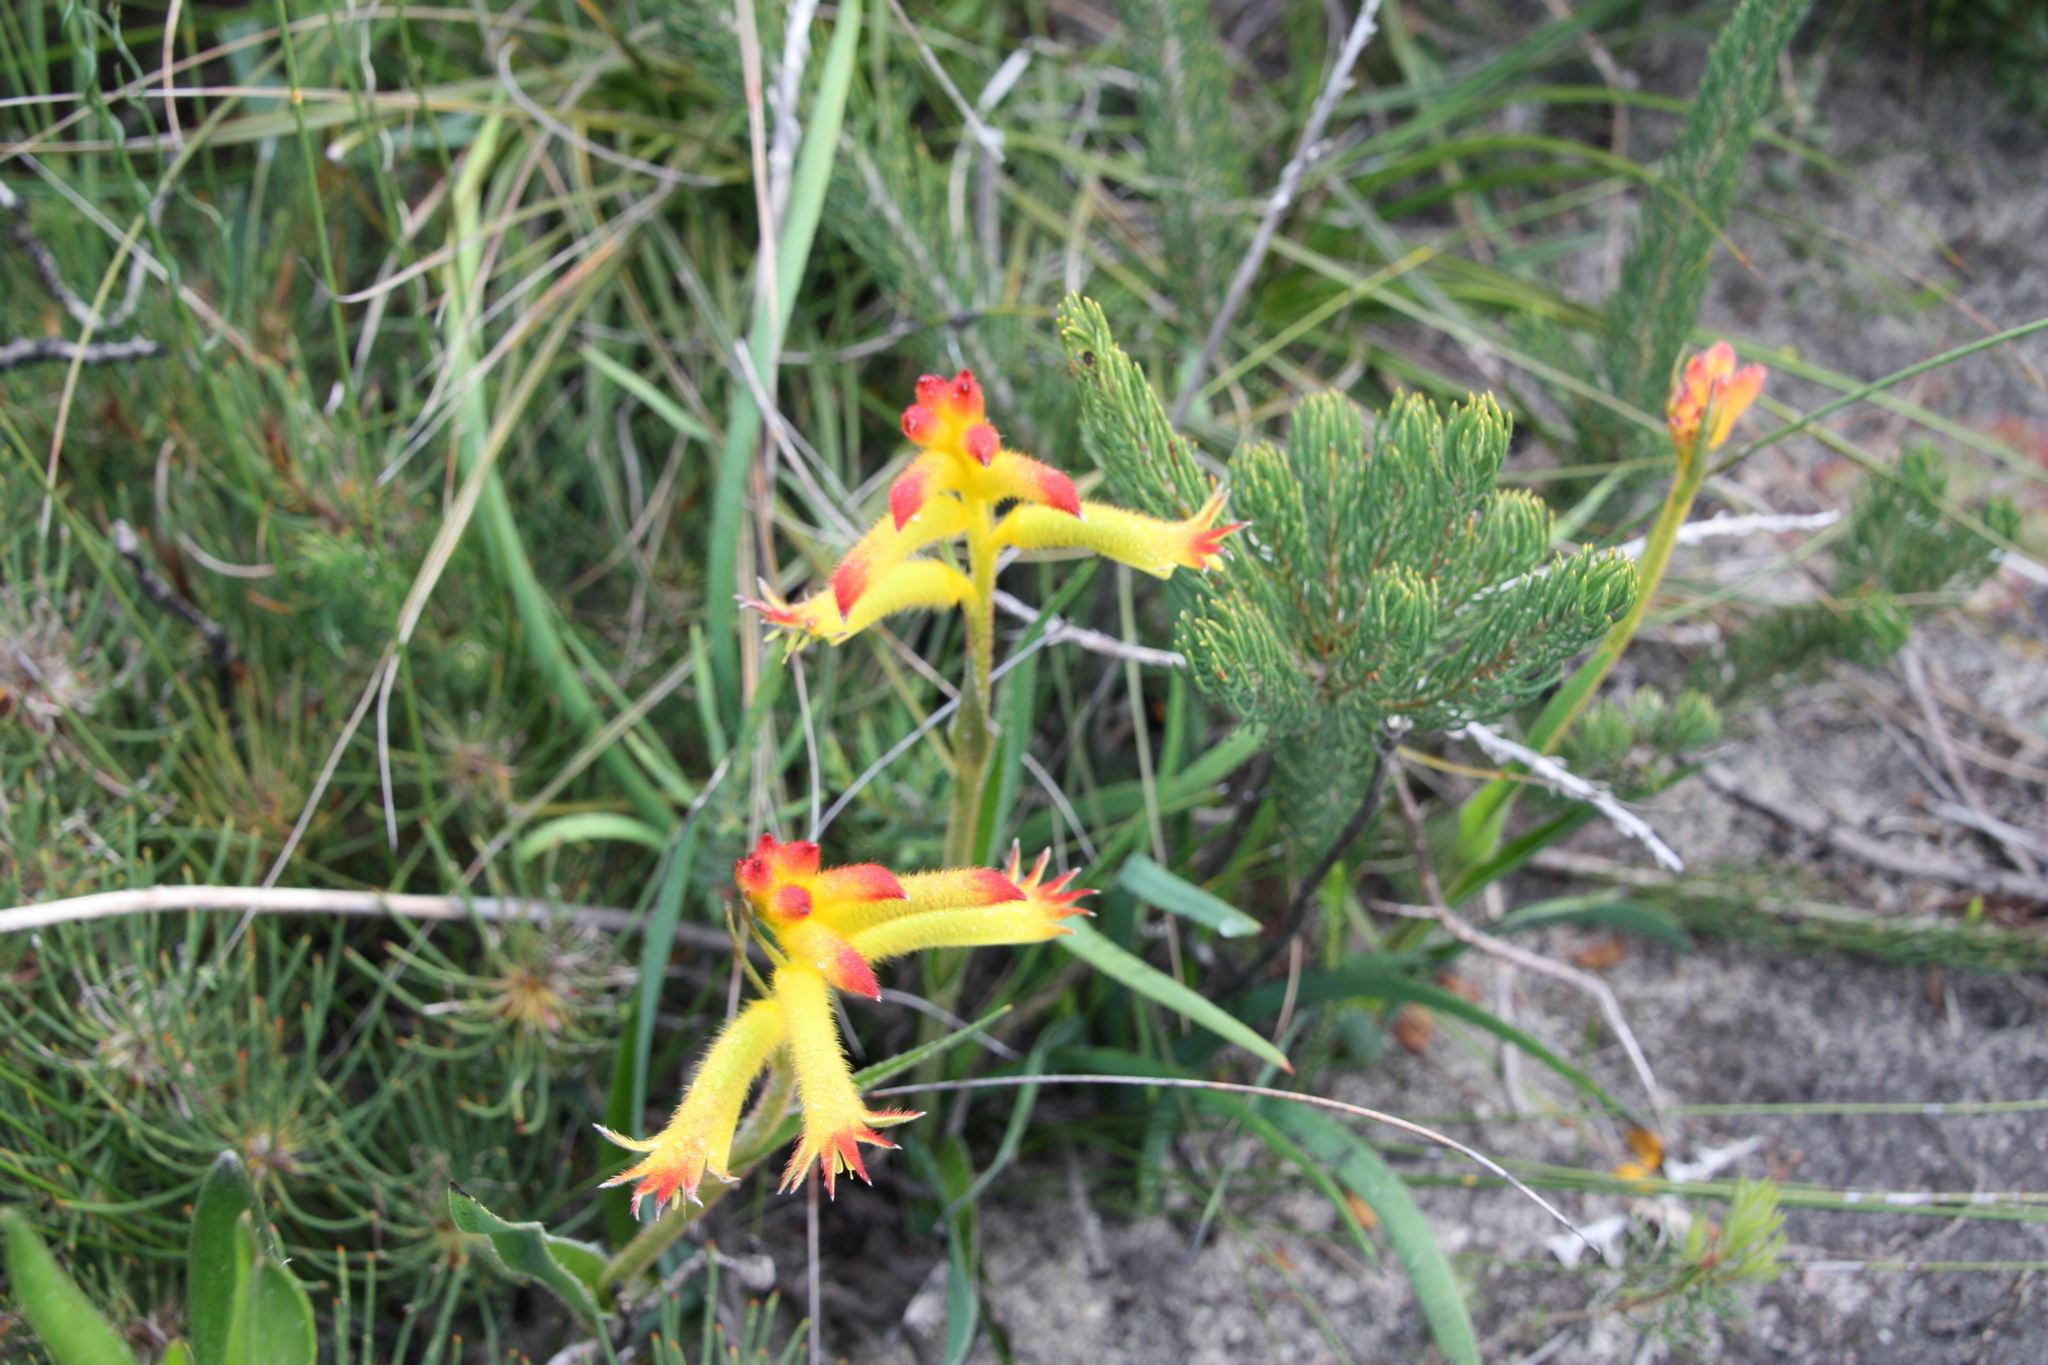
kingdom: Plantae
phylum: Tracheophyta
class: Liliopsida
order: Commelinales
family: Haemodoraceae
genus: Anigozanthos
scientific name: Anigozanthos humilis
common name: Cat's-paw
